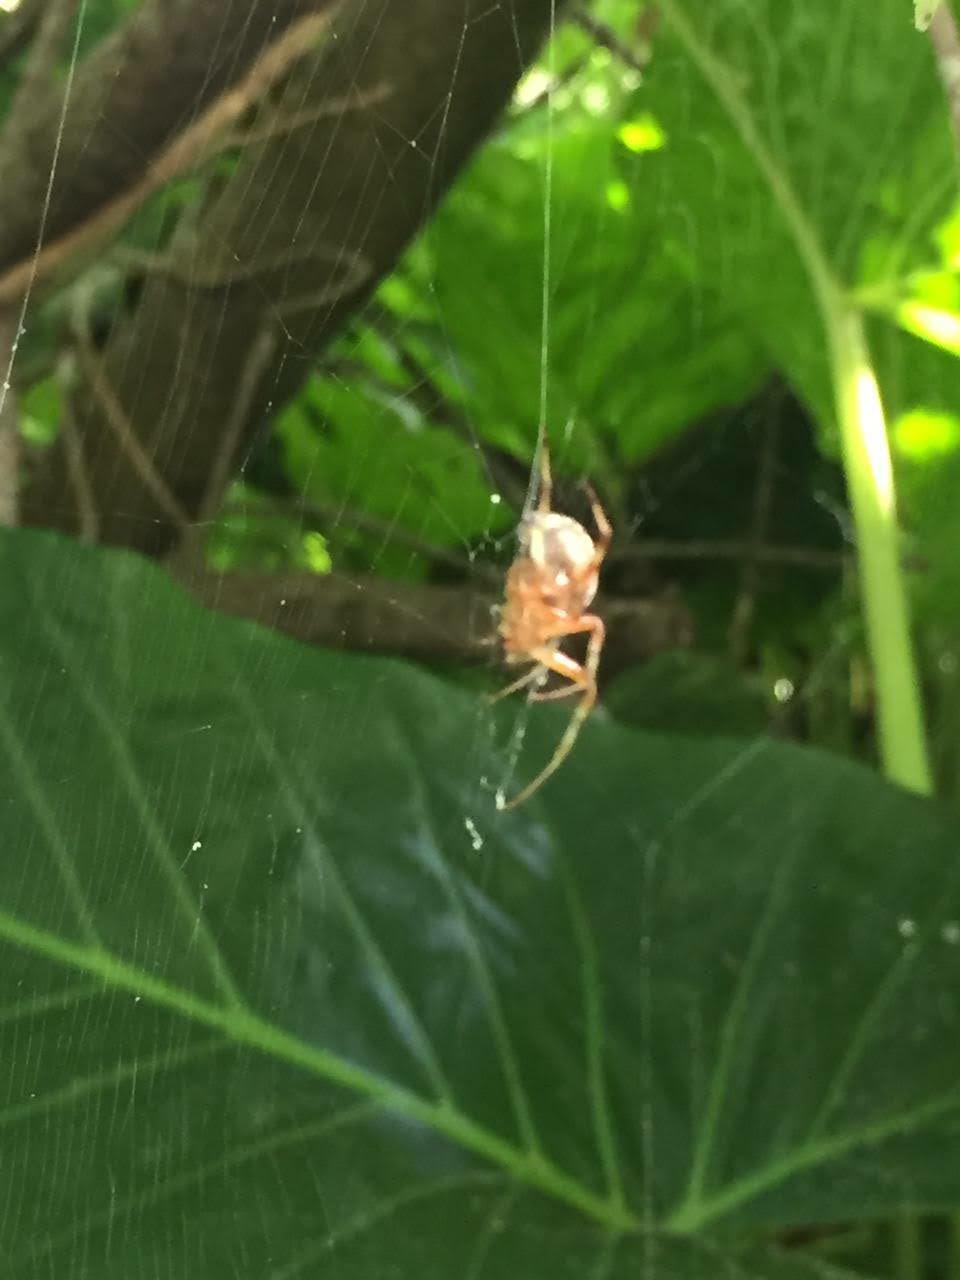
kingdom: Animalia
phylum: Arthropoda
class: Arachnida
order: Araneae
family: Araneidae
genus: Araneus
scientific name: Araneus workmani
